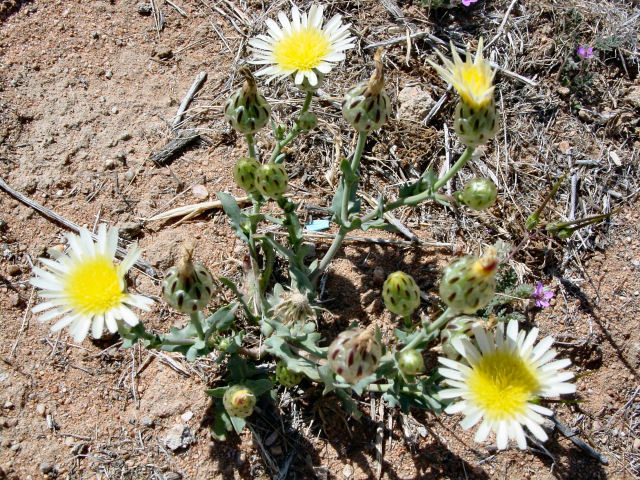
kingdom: Plantae
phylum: Tracheophyta
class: Magnoliopsida
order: Asterales
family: Asteraceae
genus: Malacothrix
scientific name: Malacothrix coulteri
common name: Snake's-head
